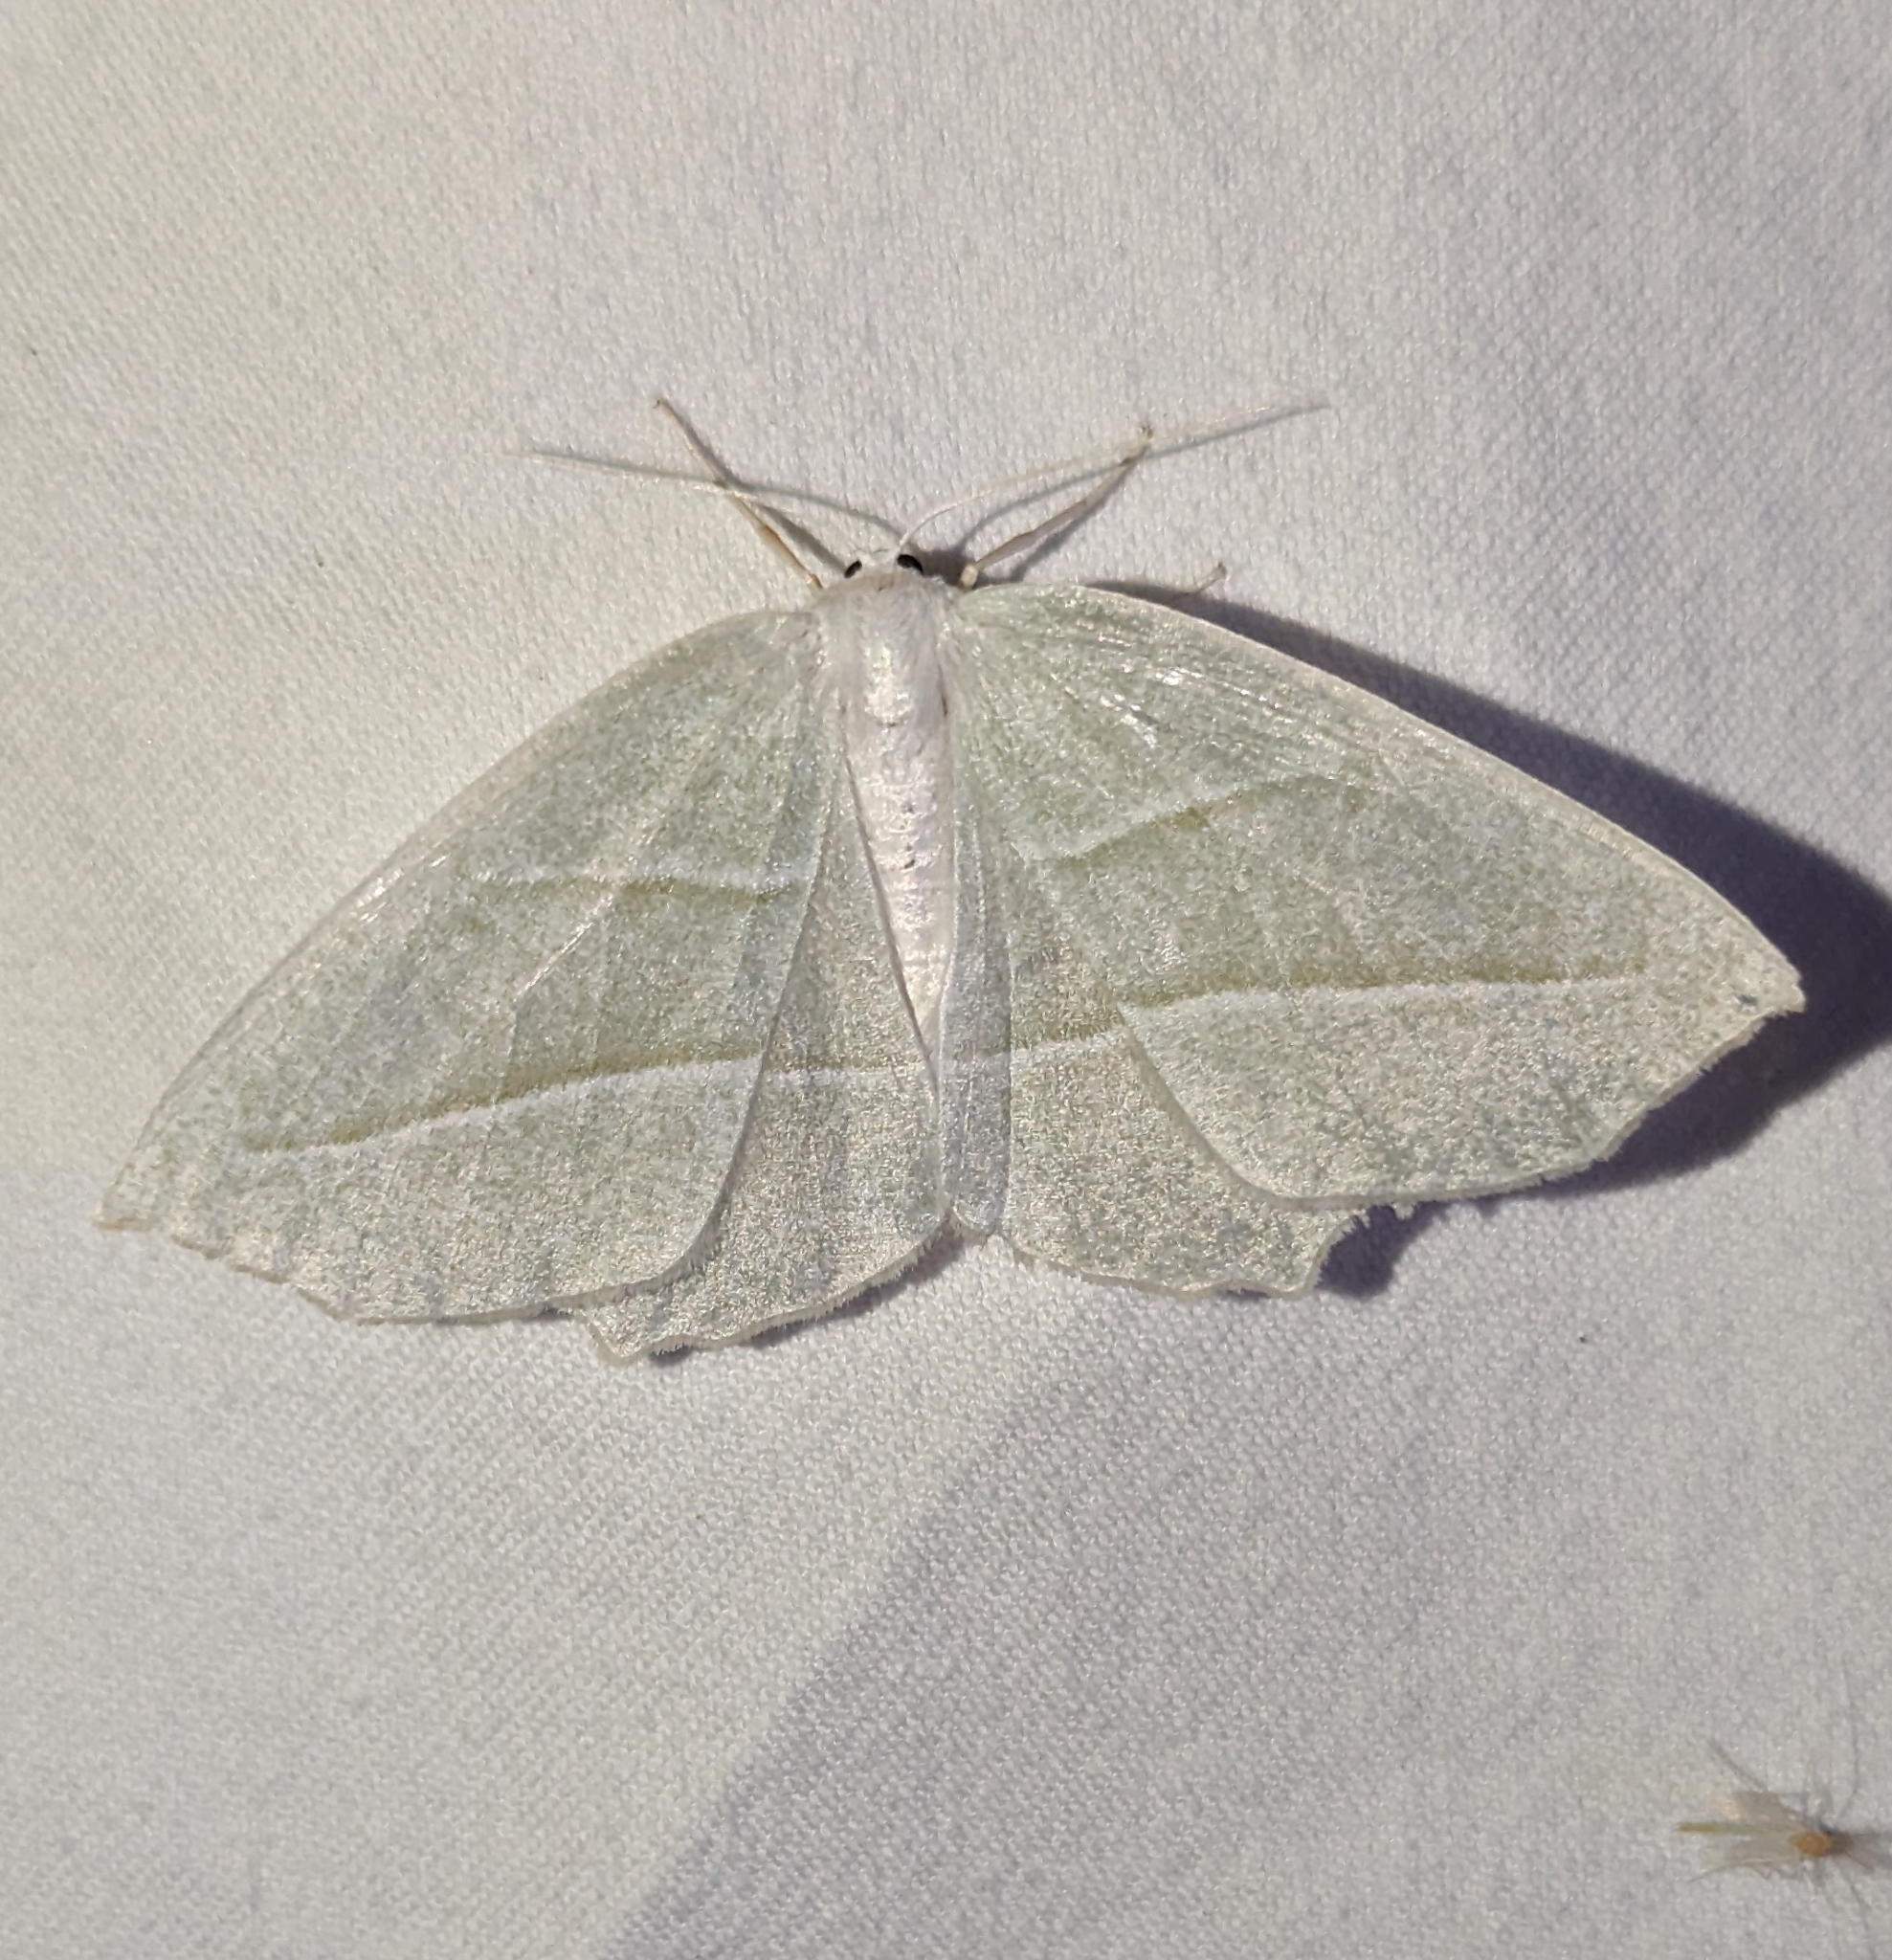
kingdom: Animalia
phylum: Arthropoda
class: Insecta
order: Lepidoptera
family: Geometridae
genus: Campaea
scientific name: Campaea perlata
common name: Fringed looper
